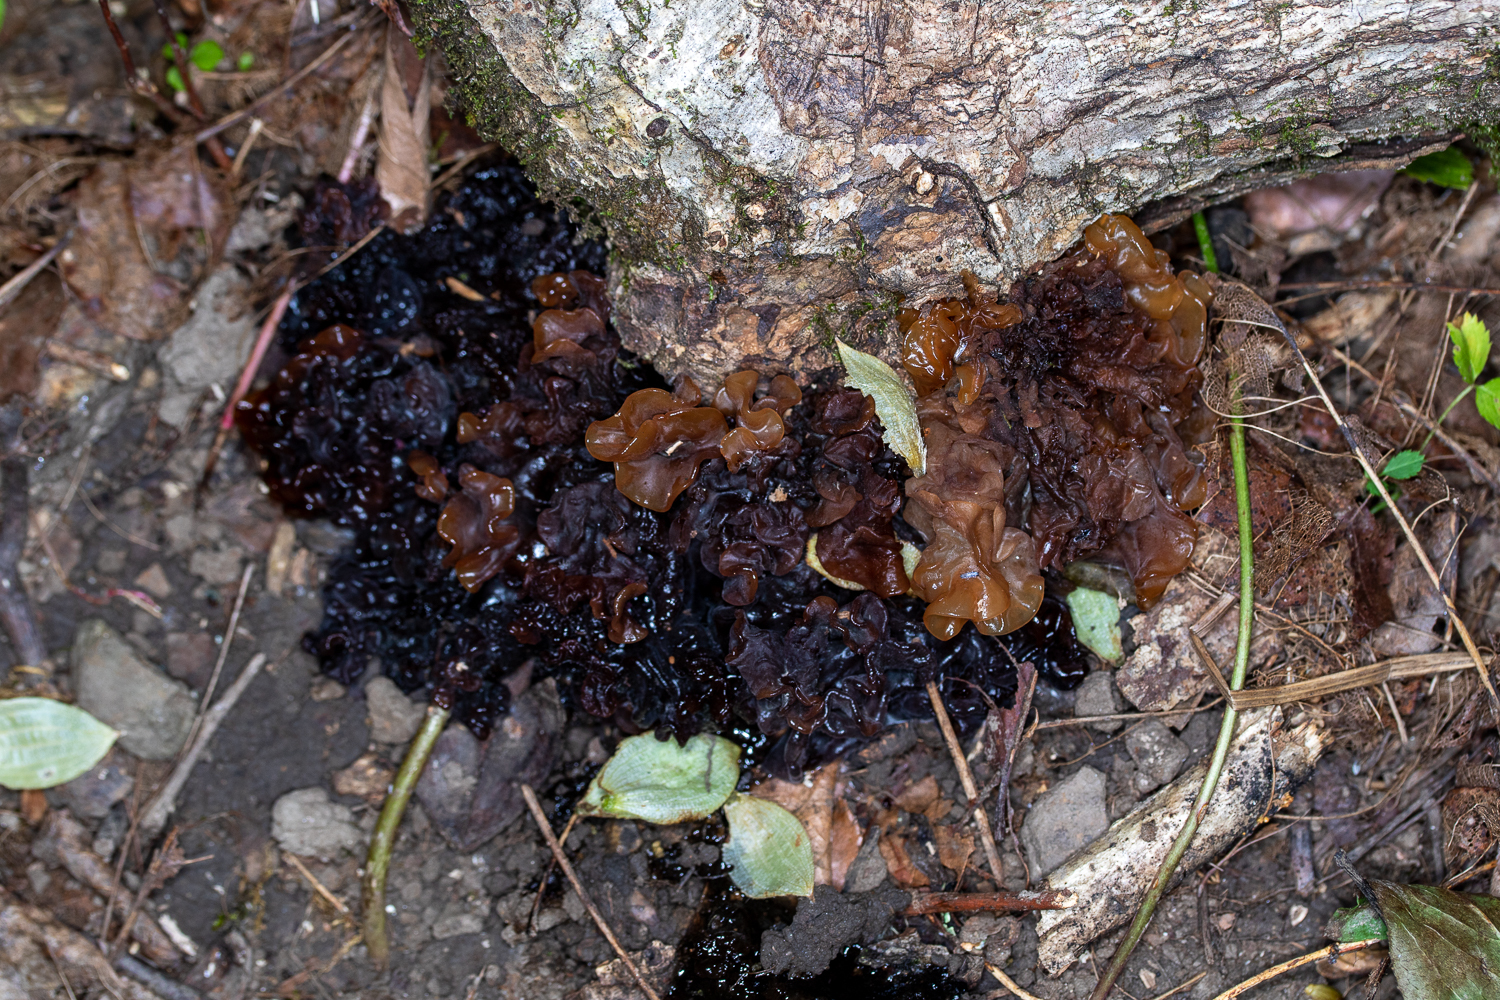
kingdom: Fungi
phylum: Basidiomycota
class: Tremellomycetes
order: Tremellales
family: Tremellaceae
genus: Phaeotremella
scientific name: Phaeotremella foliacea
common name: Leafy brain
